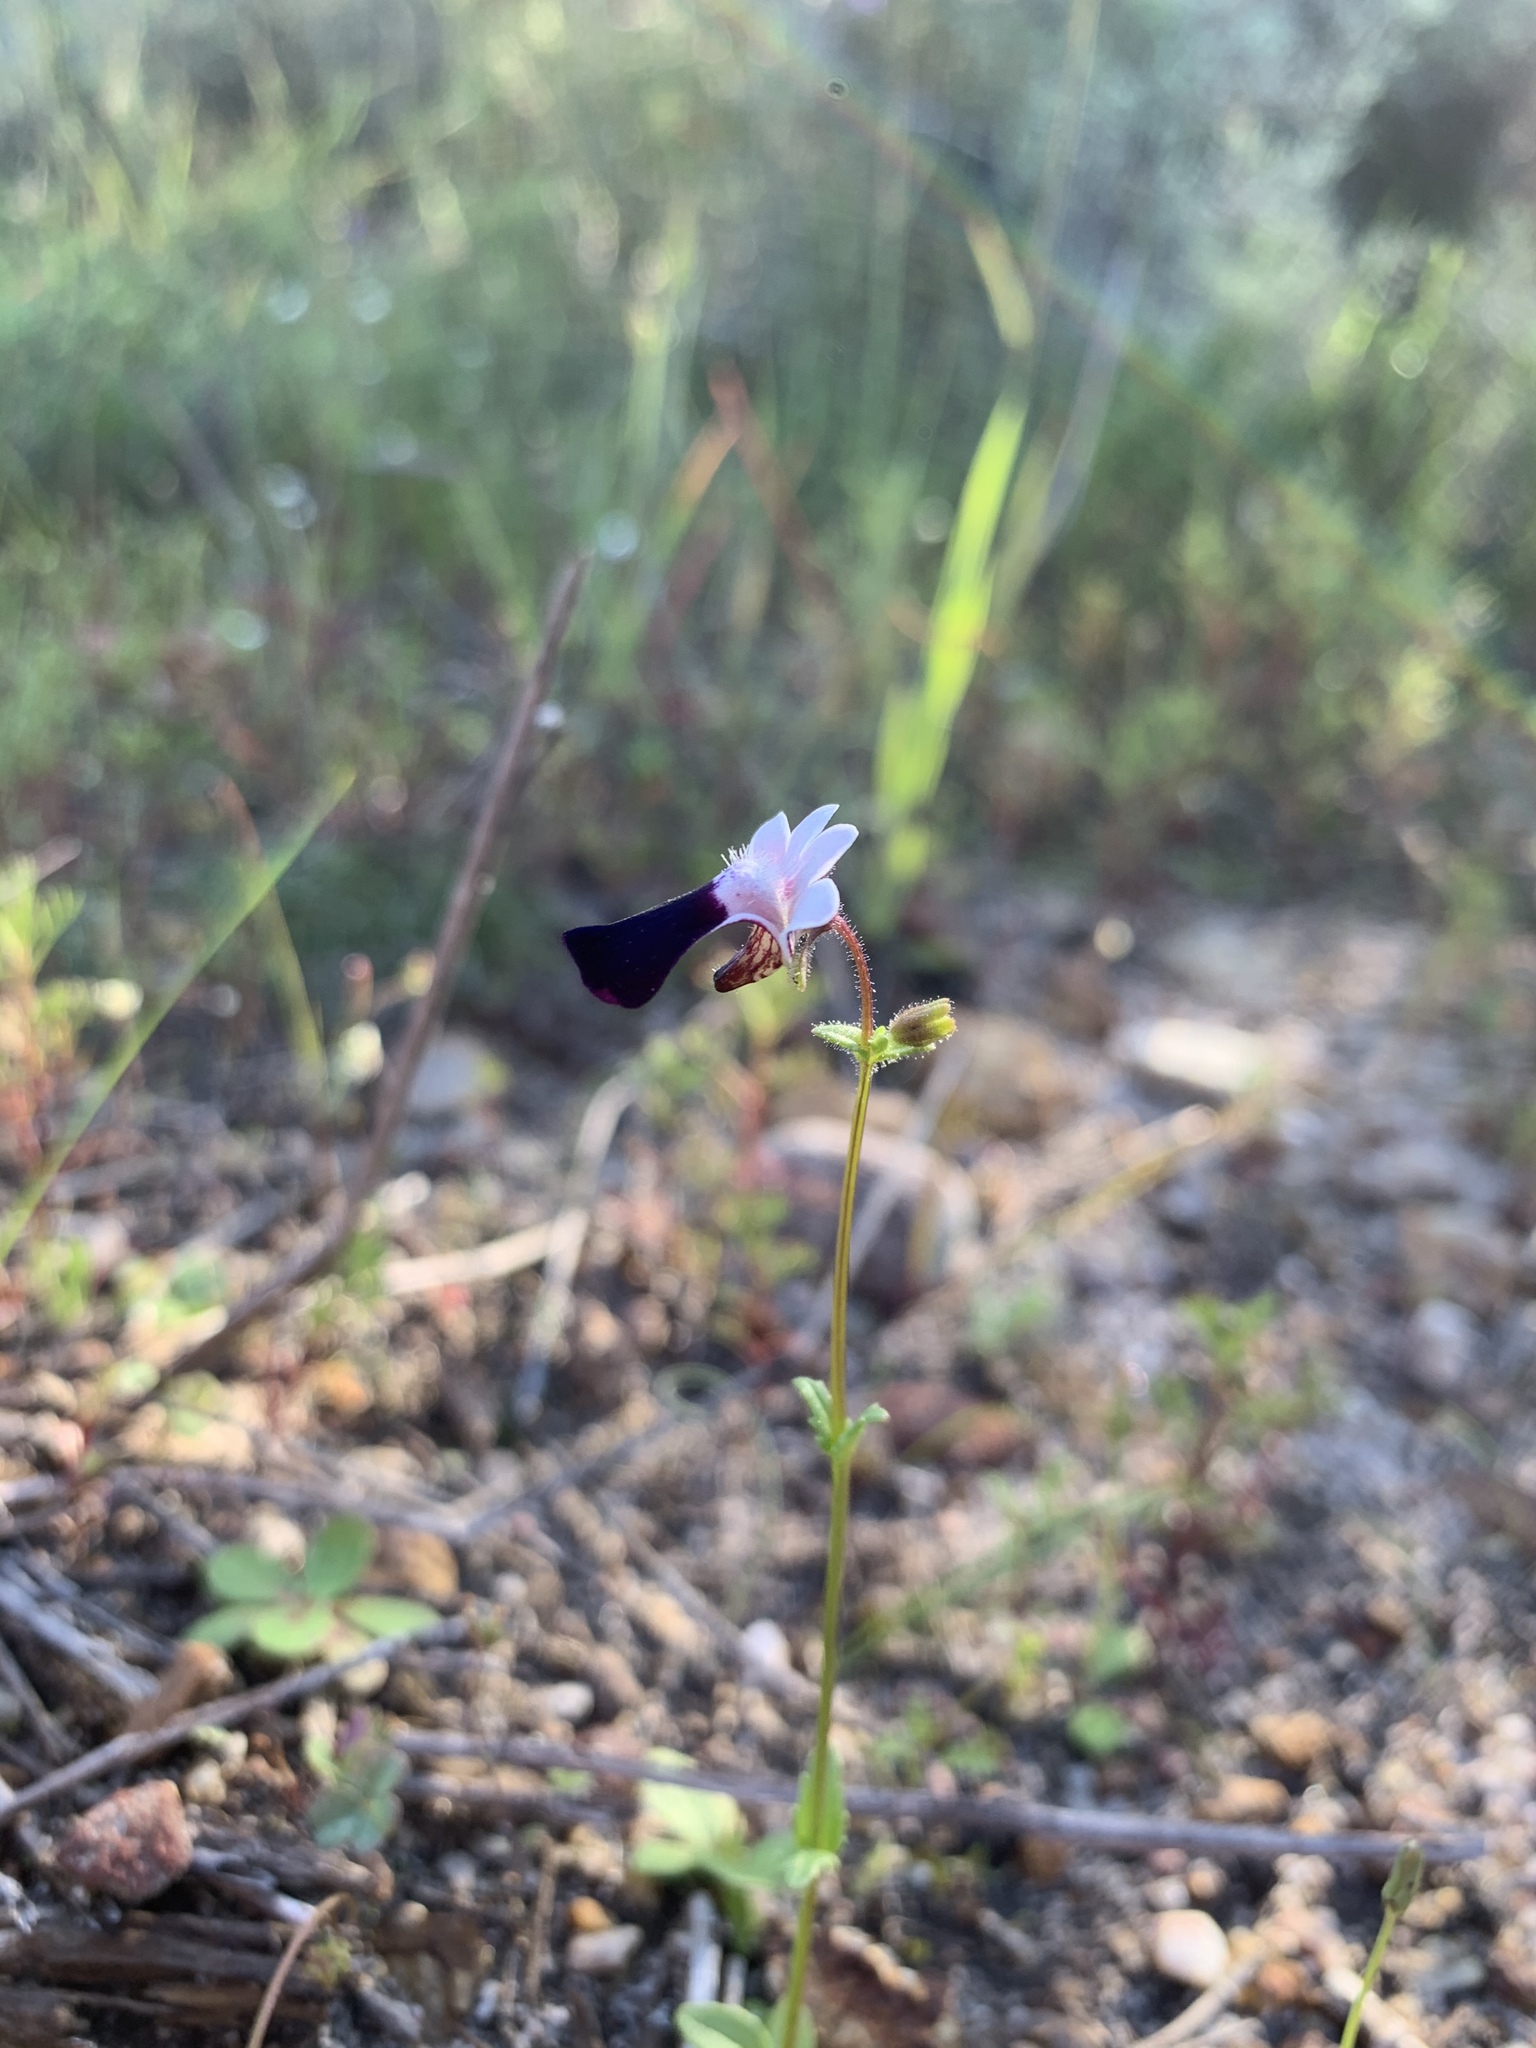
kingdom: Plantae
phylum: Tracheophyta
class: Magnoliopsida
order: Lamiales
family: Scrophulariaceae
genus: Nemesia
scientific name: Nemesia barbata
